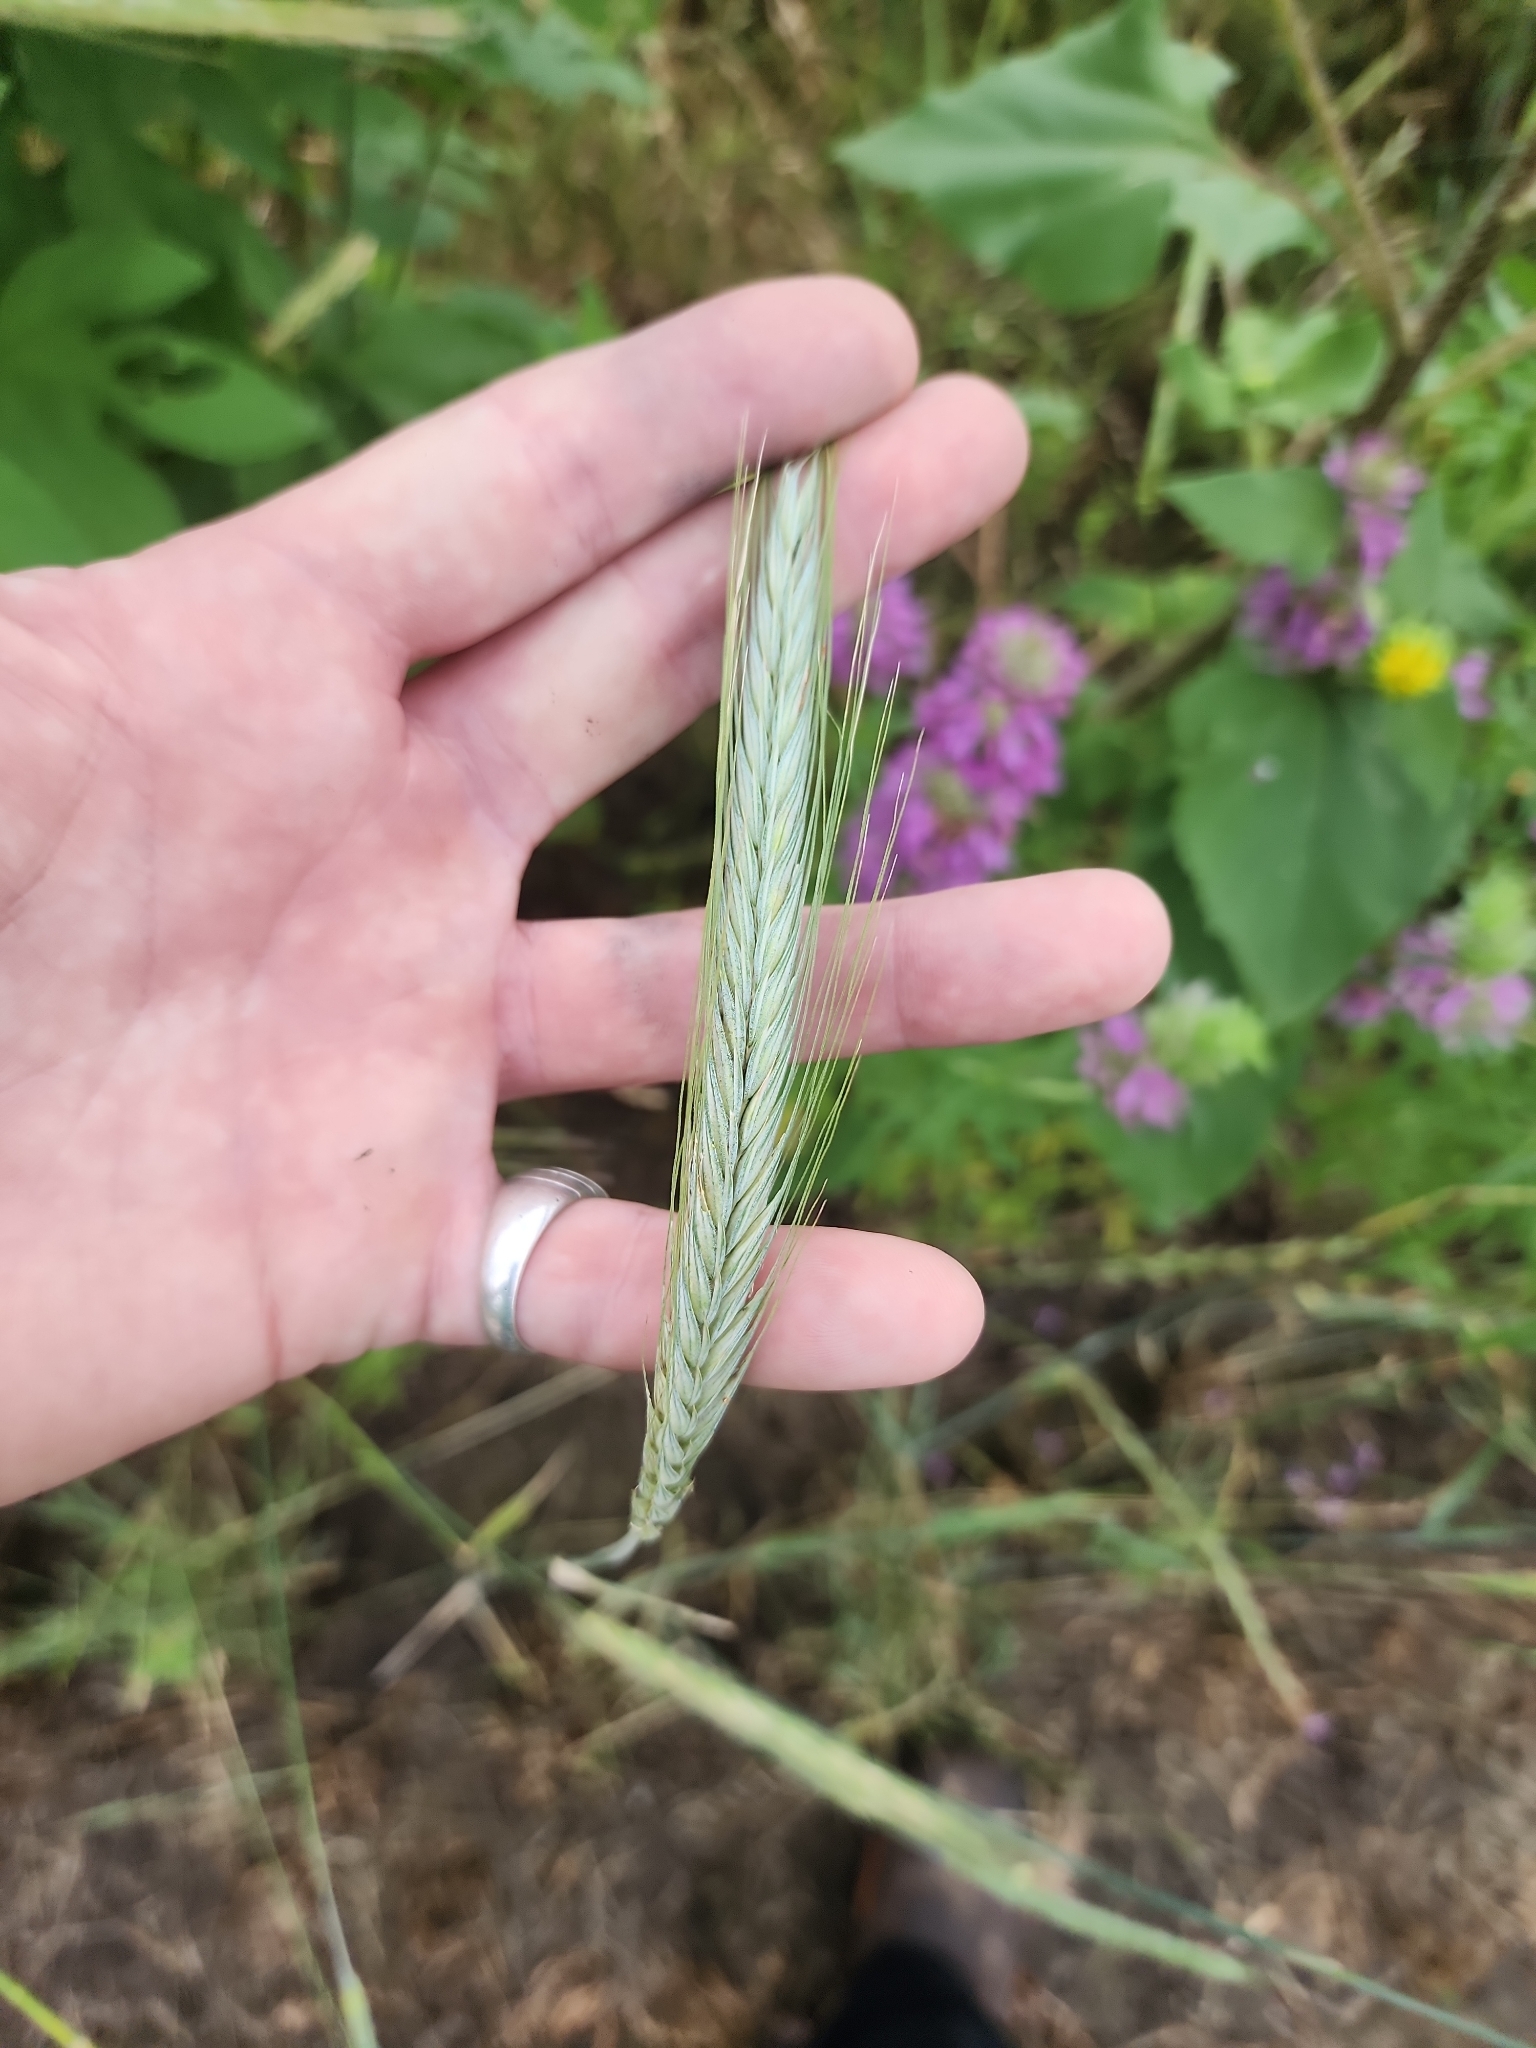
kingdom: Plantae
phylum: Tracheophyta
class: Liliopsida
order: Poales
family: Poaceae
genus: Secale
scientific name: Secale cereale
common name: Rye
